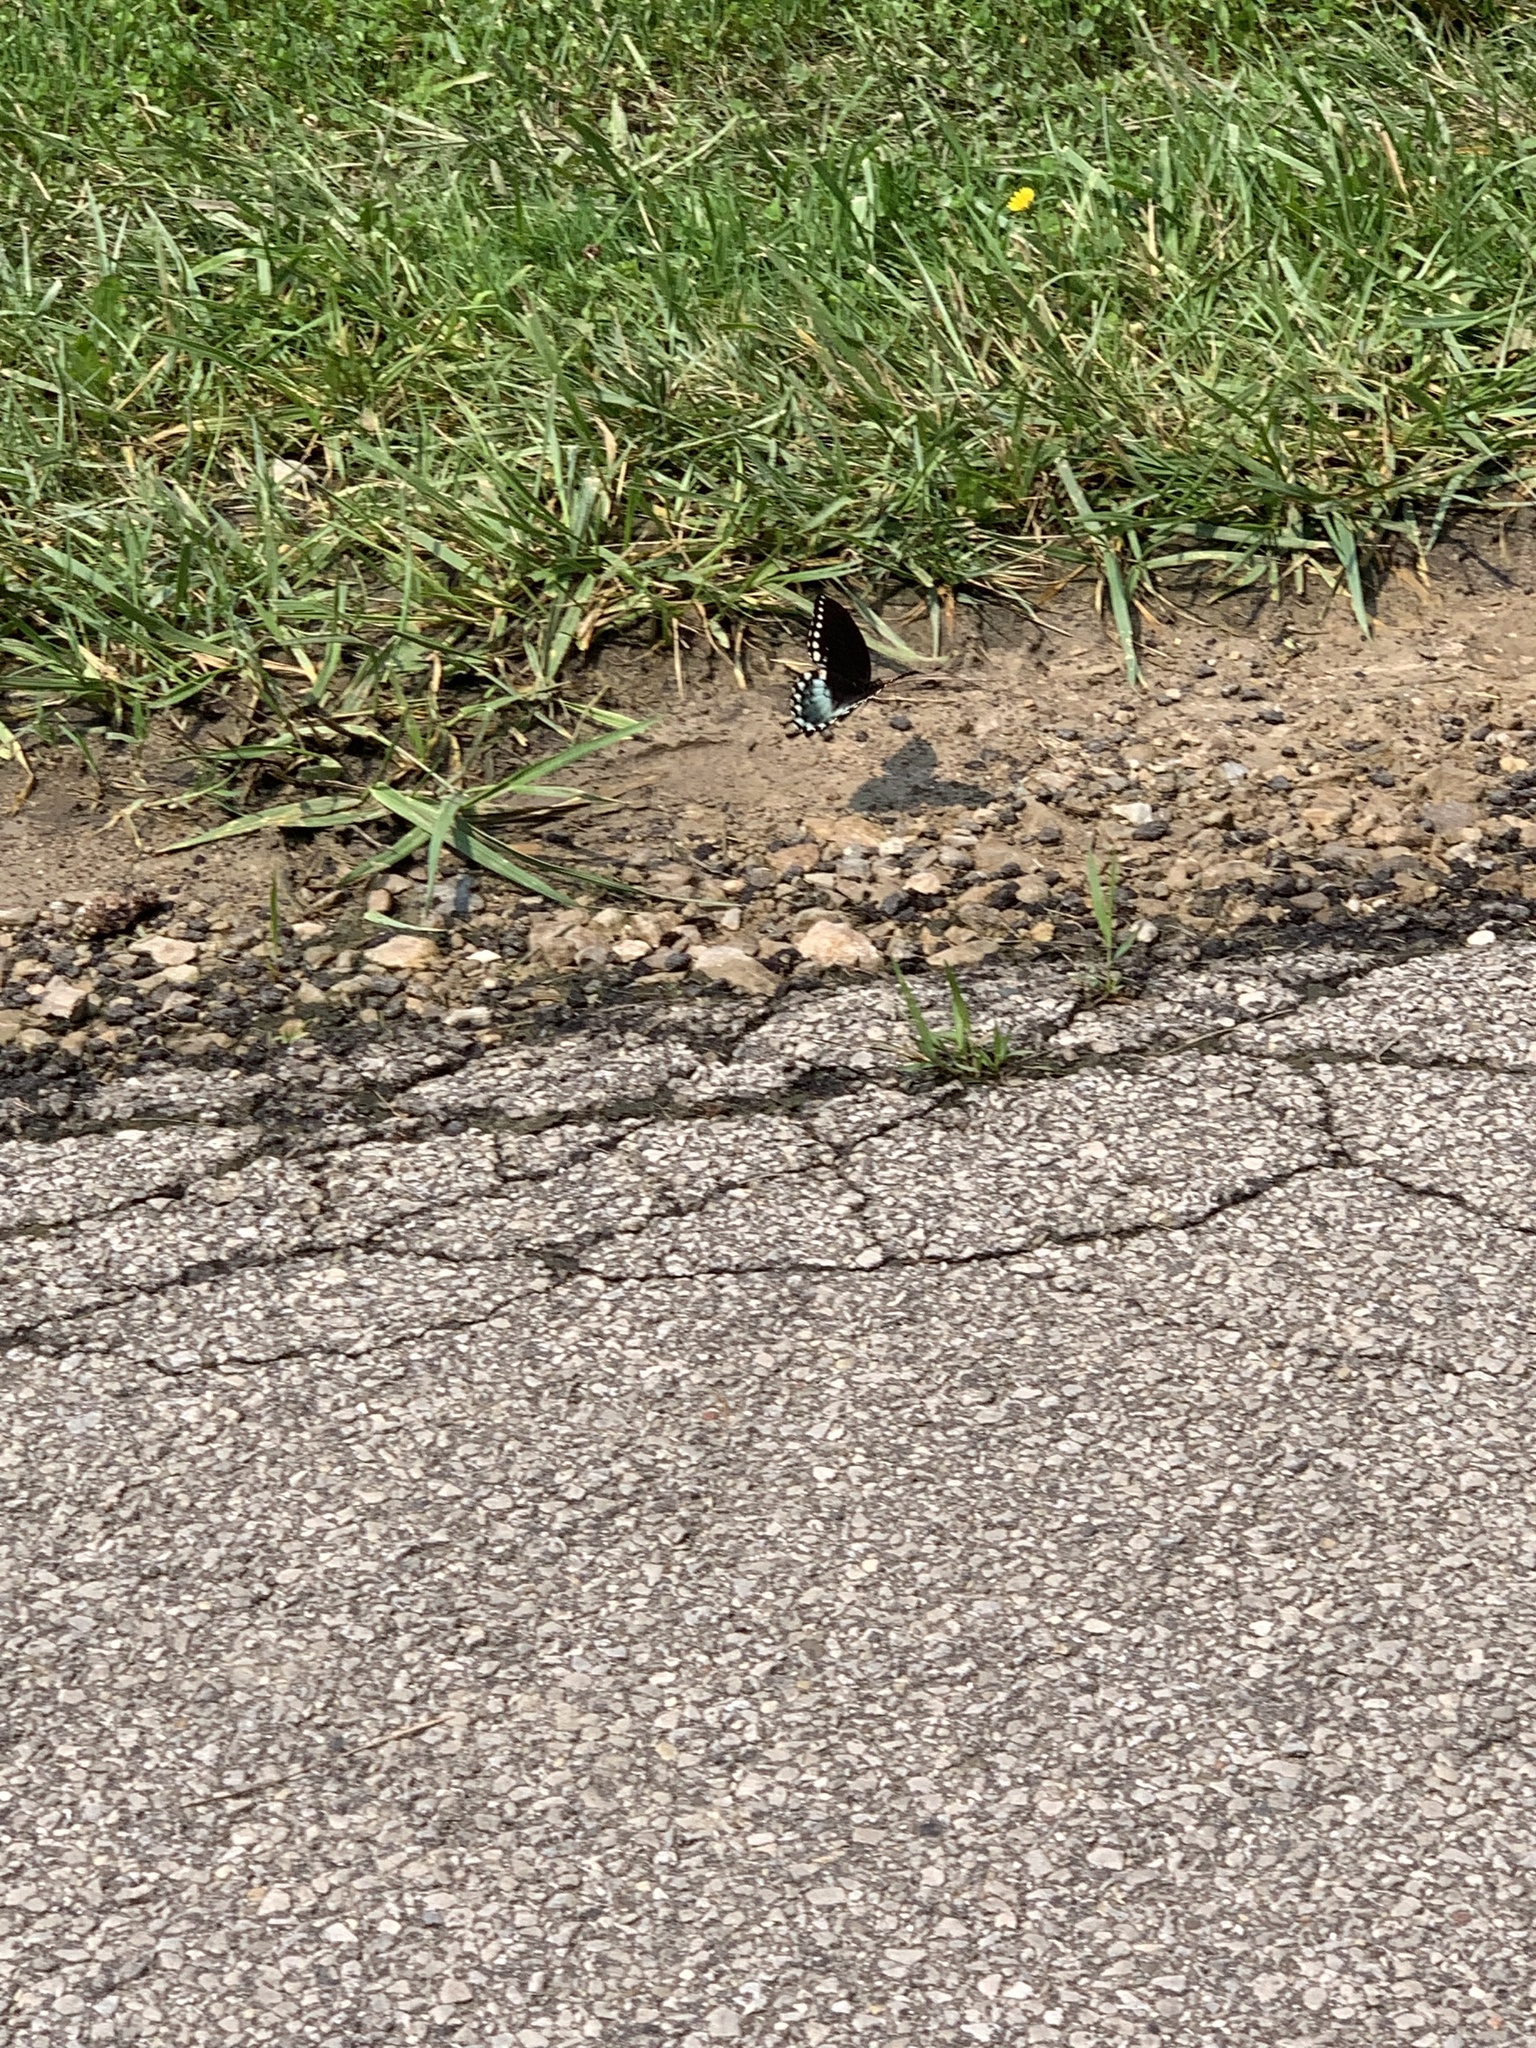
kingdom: Animalia
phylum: Arthropoda
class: Insecta
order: Lepidoptera
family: Papilionidae
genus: Papilio
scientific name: Papilio troilus
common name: Spicebush swallowtail
